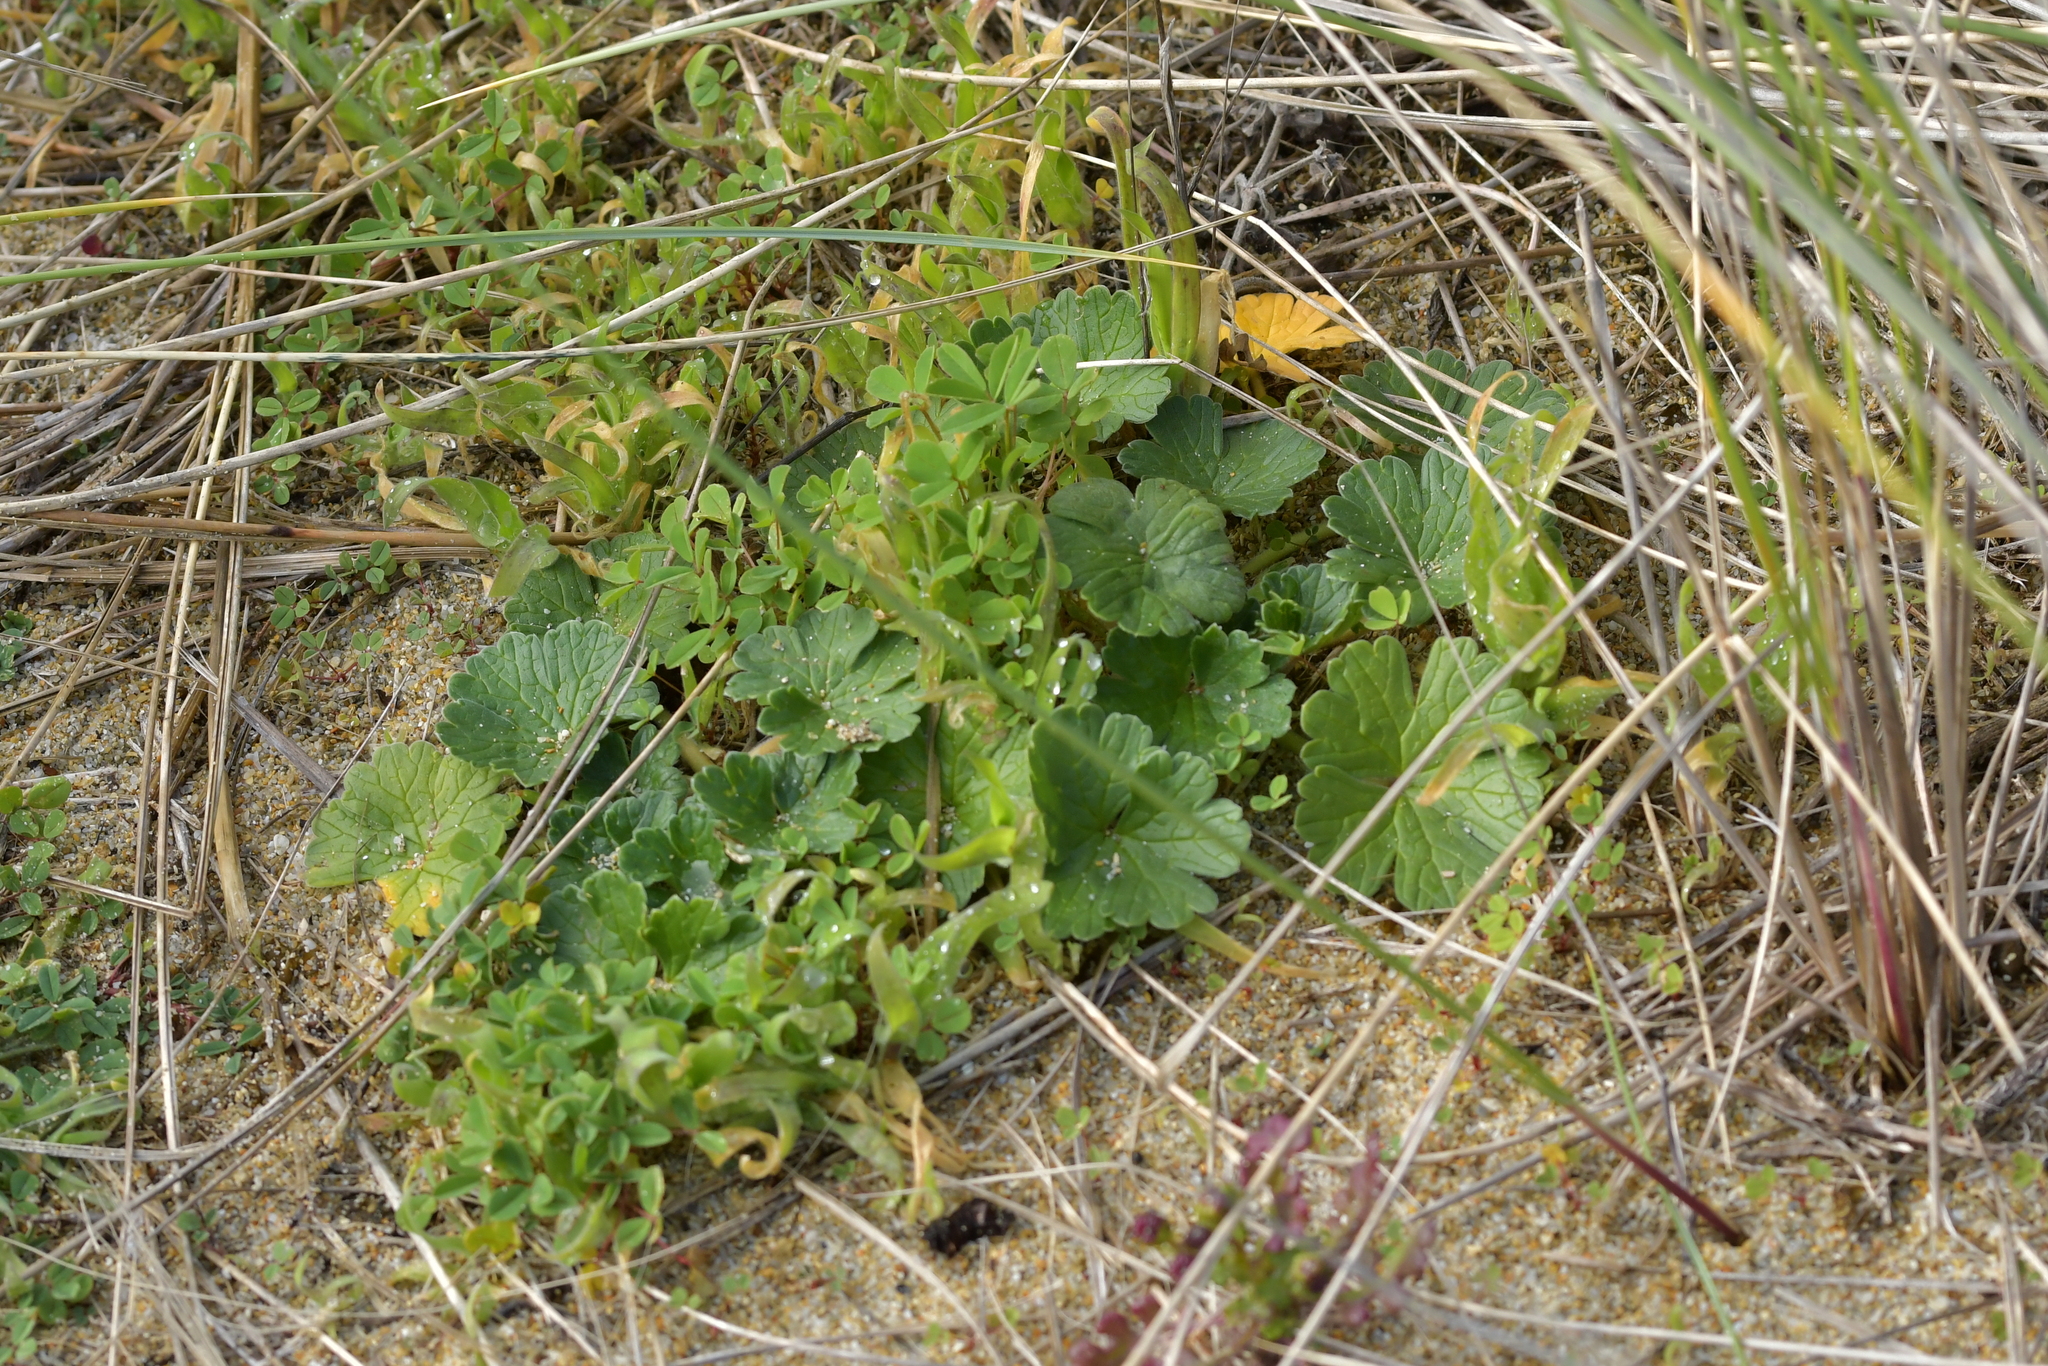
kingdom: Plantae
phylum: Tracheophyta
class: Magnoliopsida
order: Geraniales
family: Geraniaceae
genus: Geranium
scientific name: Geranium traversii
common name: Cranesbill
